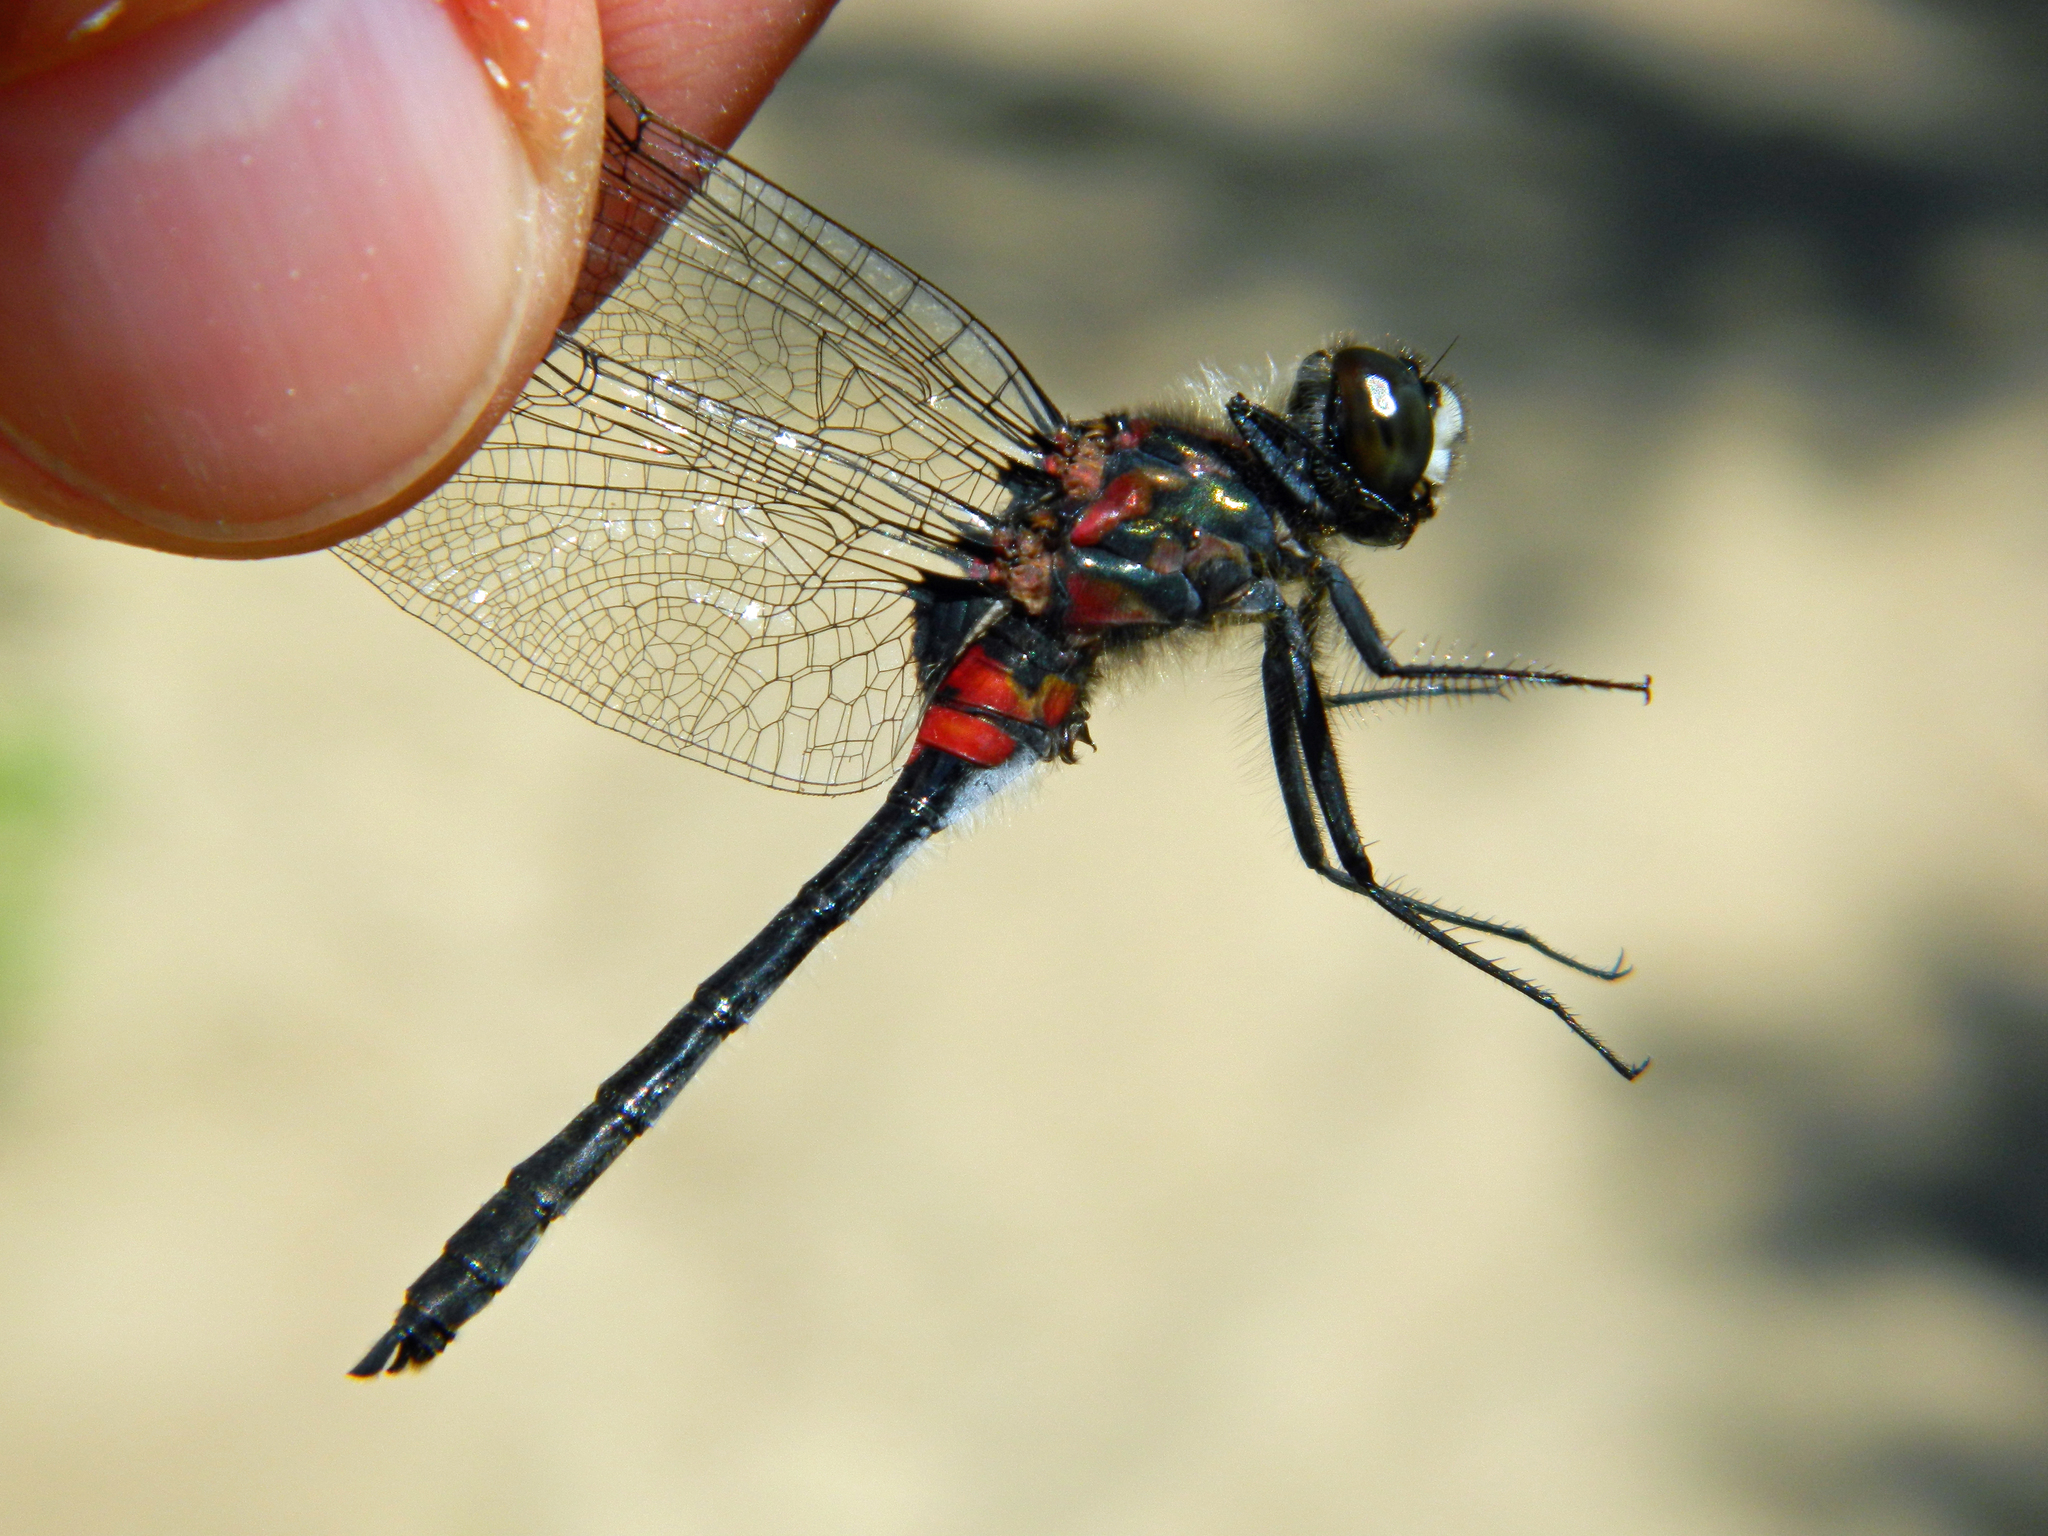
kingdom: Animalia
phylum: Arthropoda
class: Insecta
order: Odonata
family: Libellulidae
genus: Leucorrhinia
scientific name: Leucorrhinia glacialis
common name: Crimson-ringed whiteface
